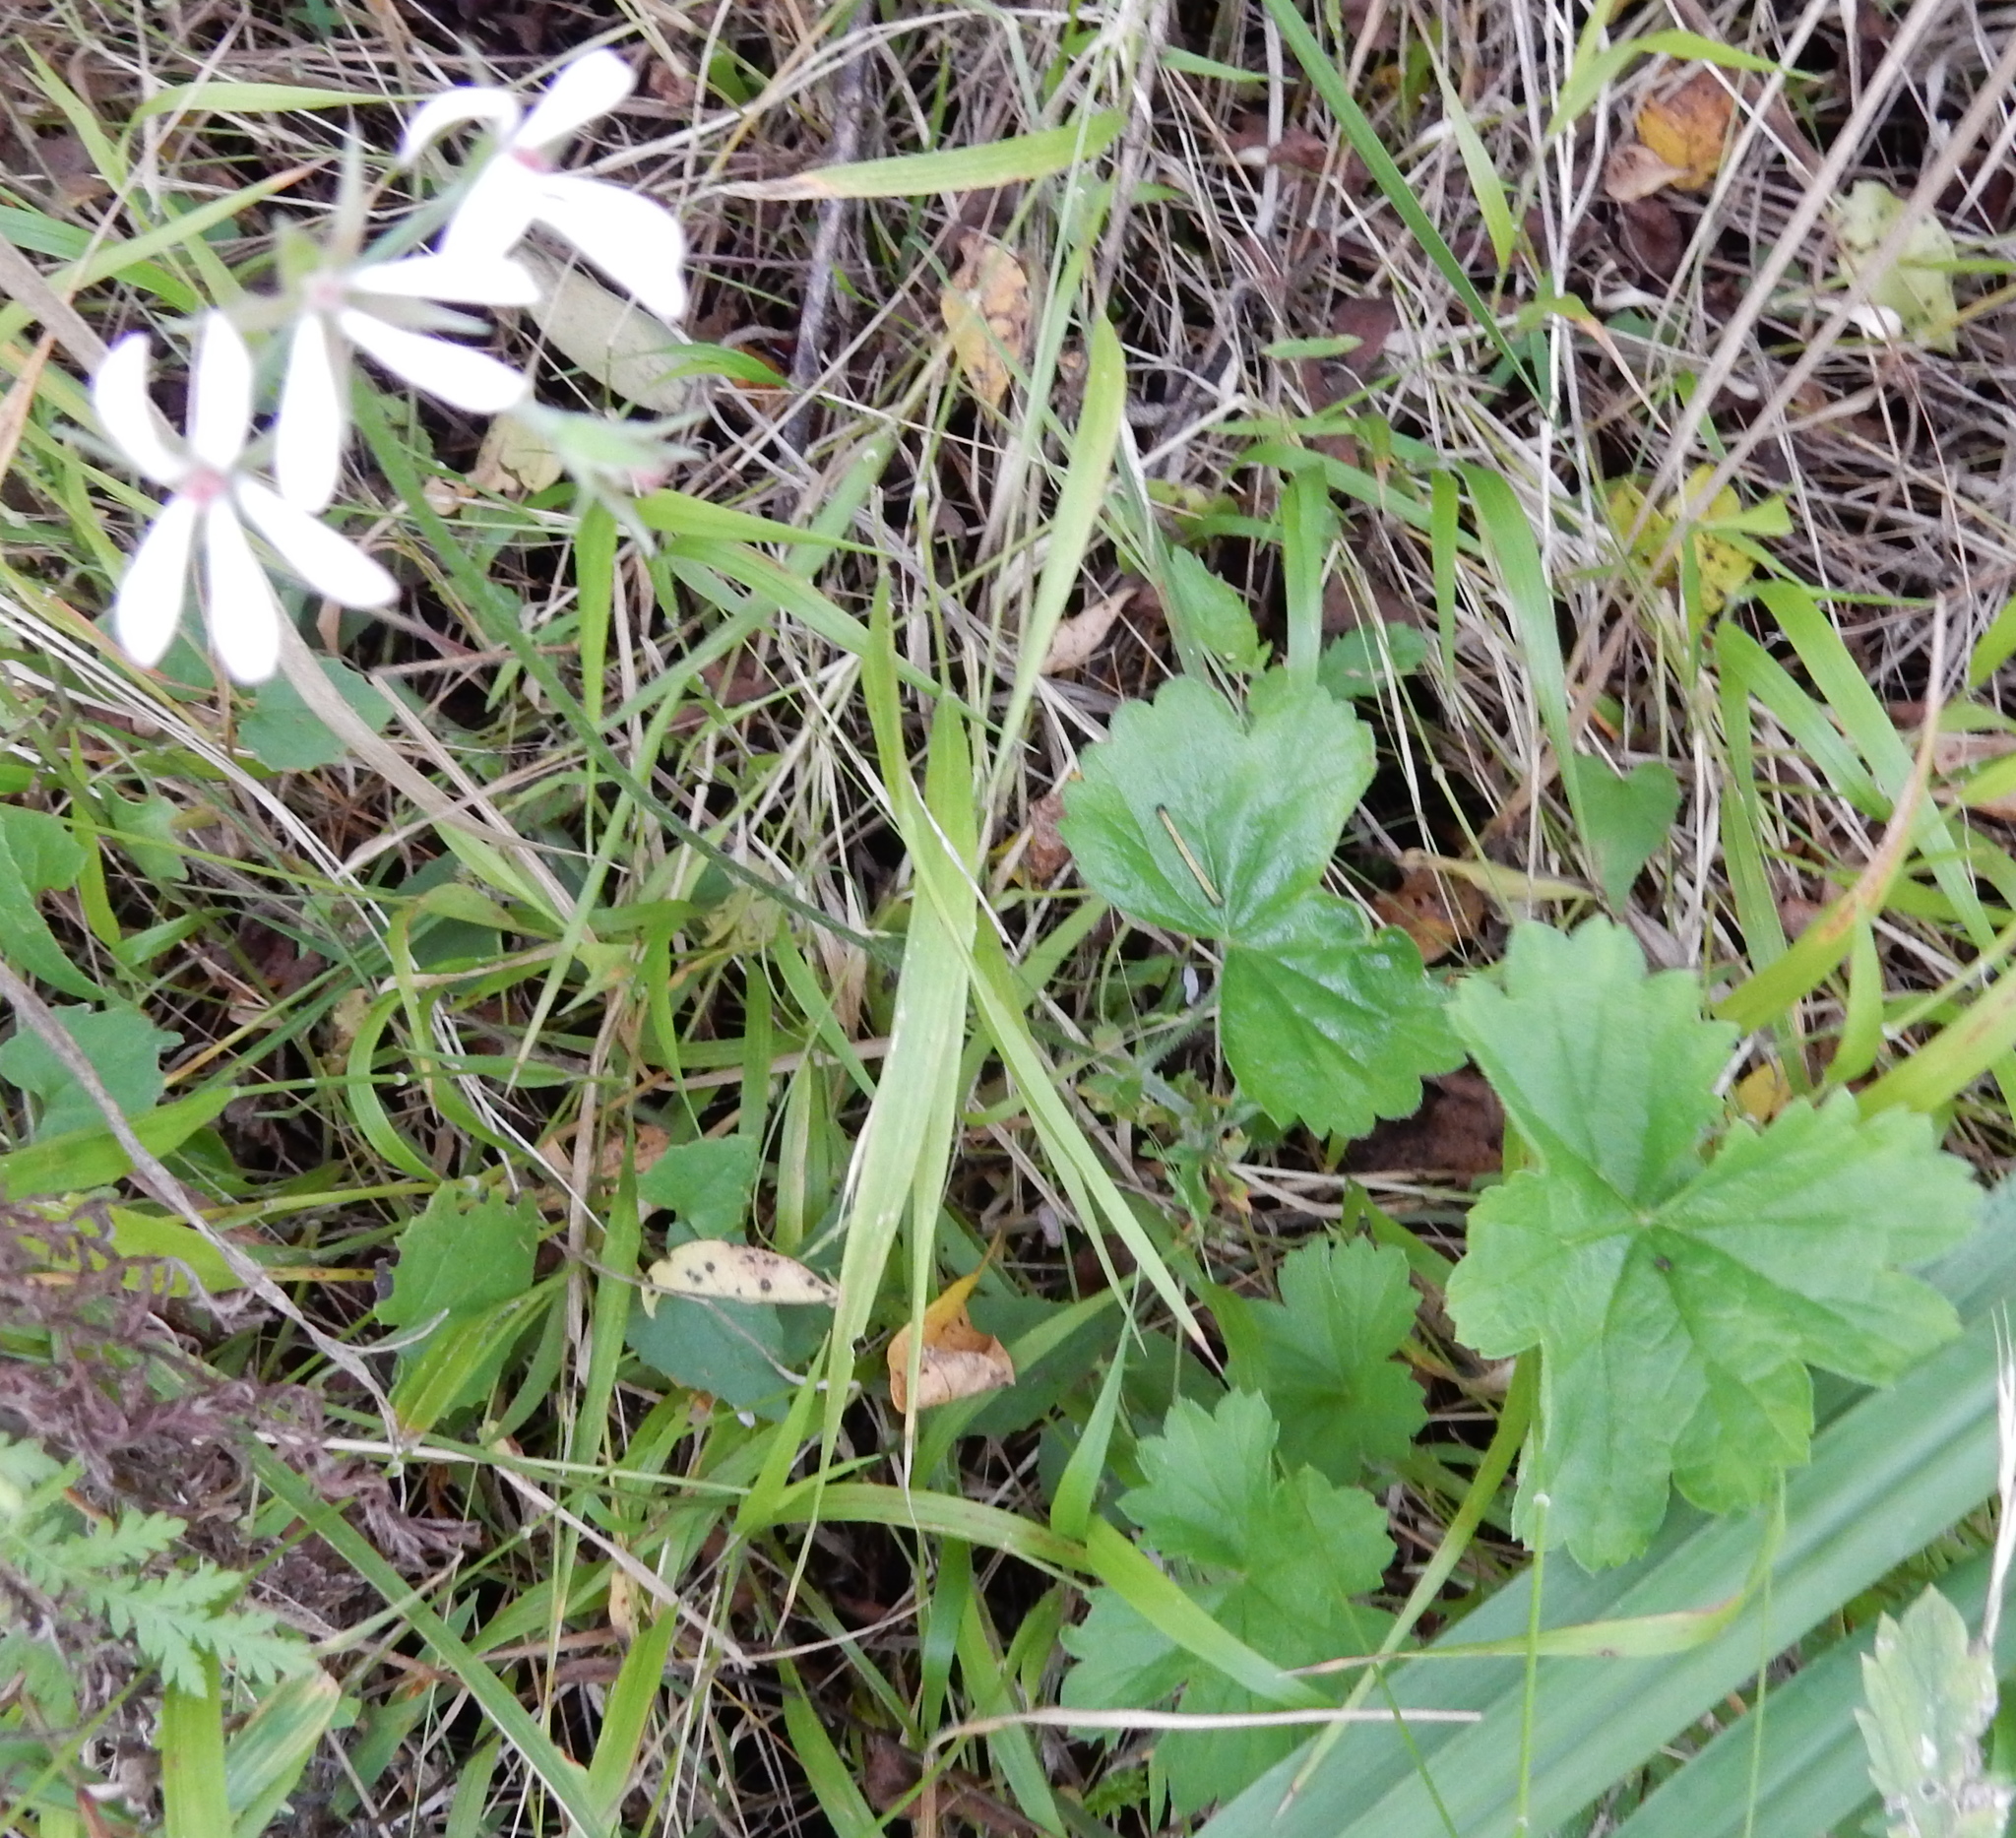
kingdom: Plantae
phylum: Tracheophyta
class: Magnoliopsida
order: Geraniales
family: Geraniaceae
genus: Pelargonium
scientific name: Pelargonium alchemilloides
